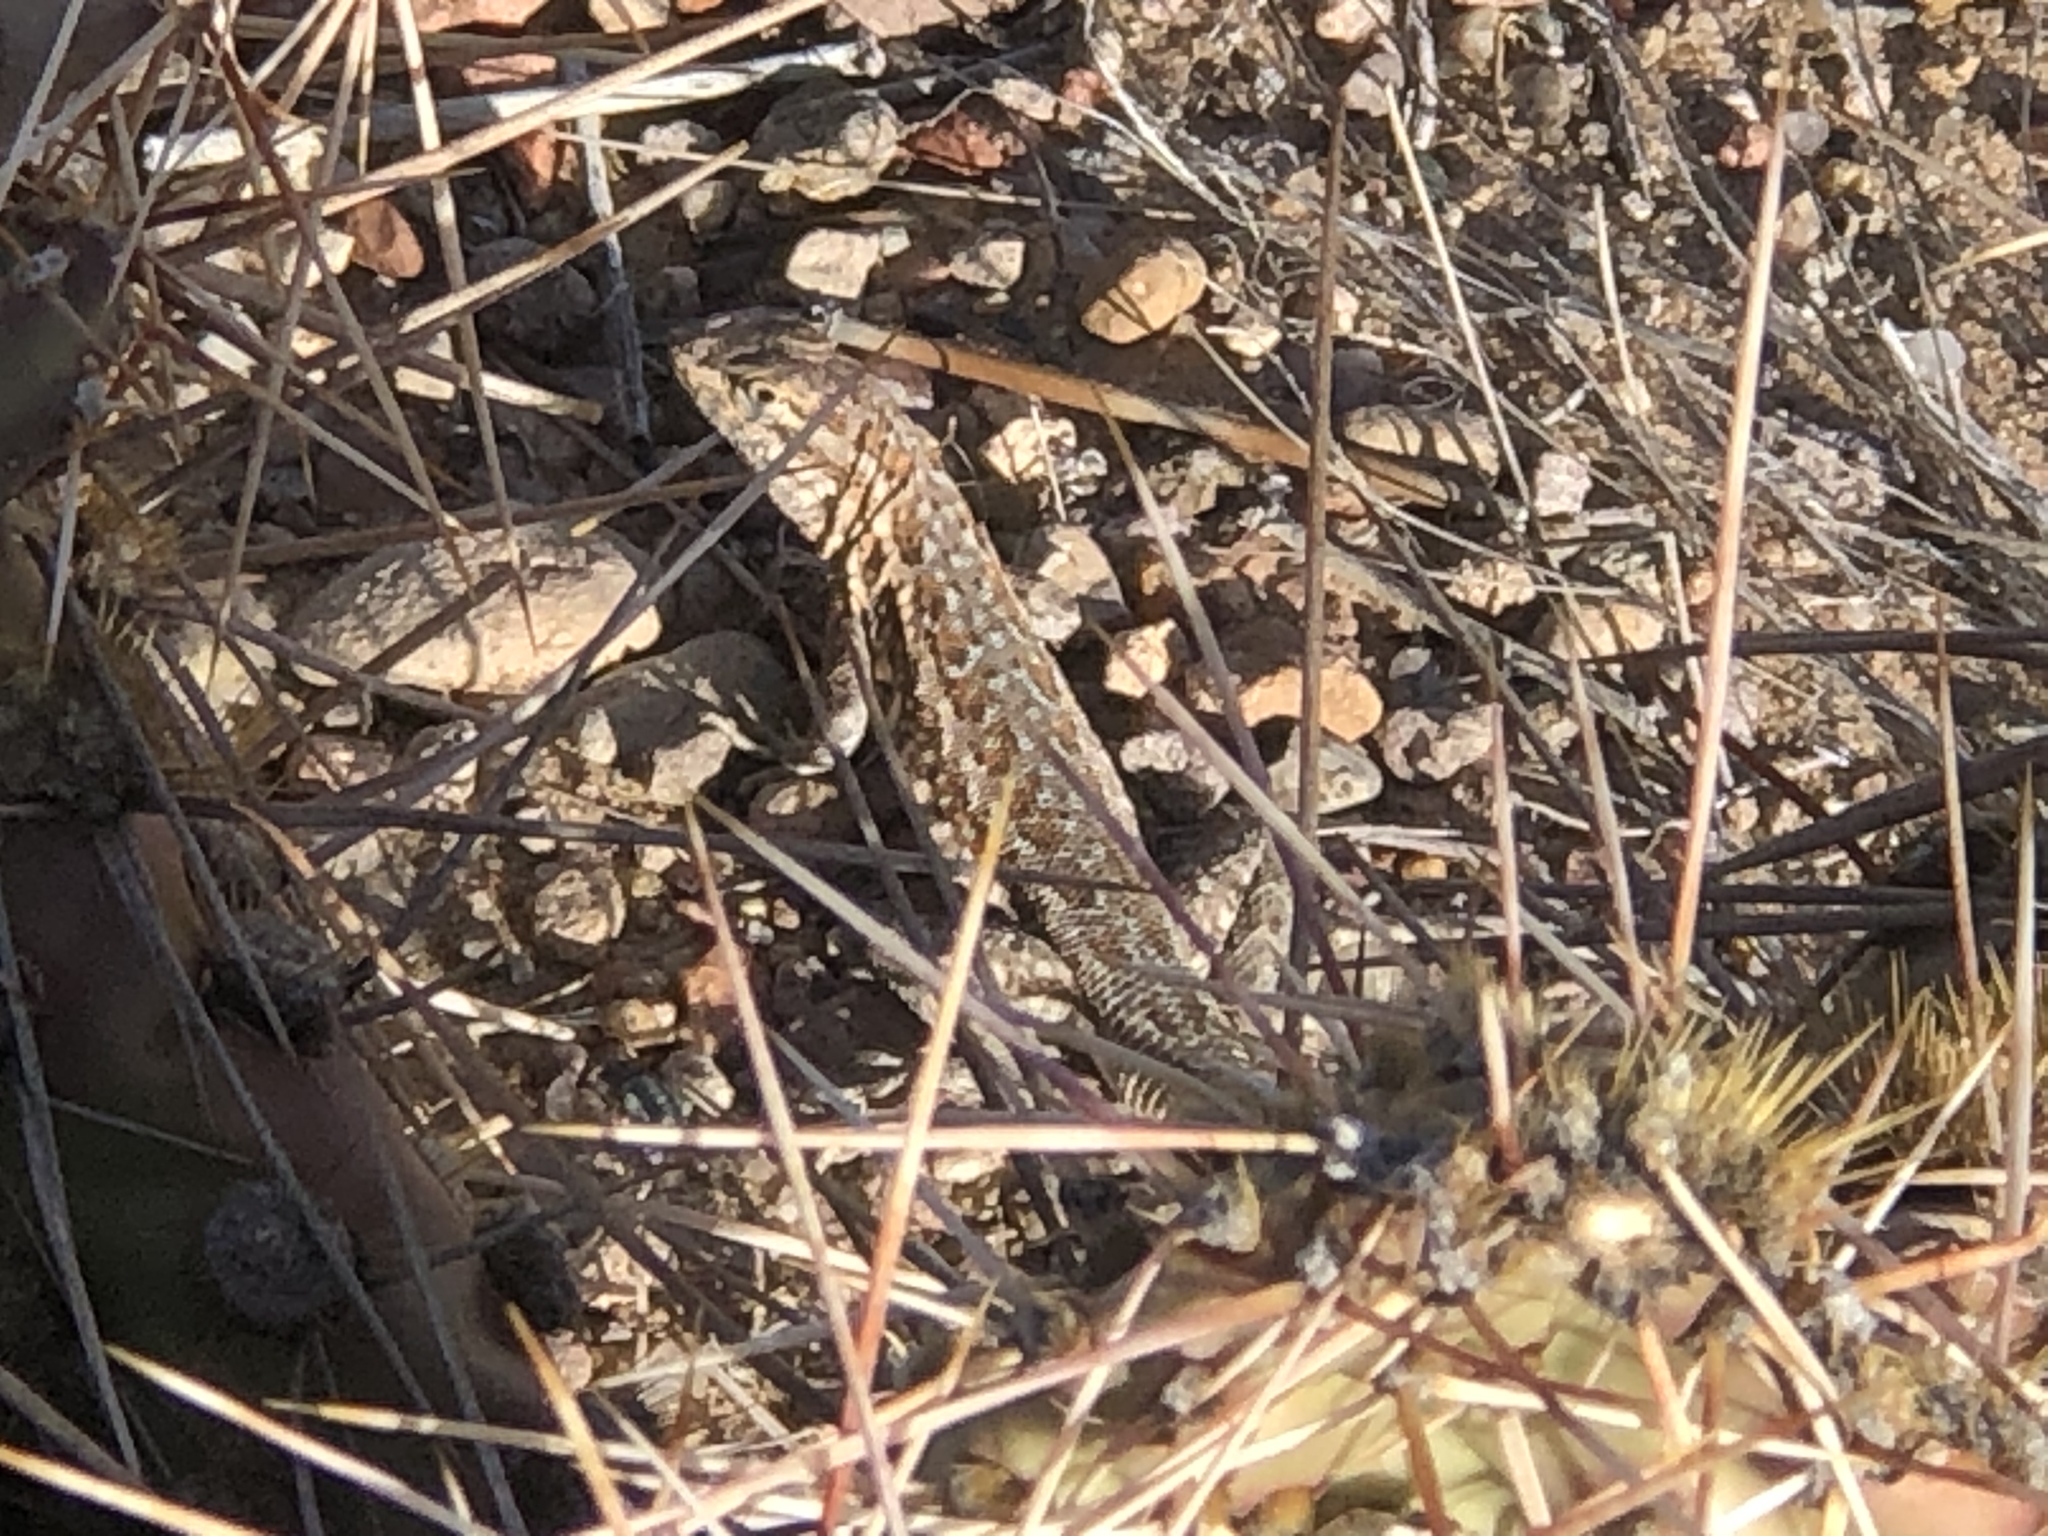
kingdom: Animalia
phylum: Chordata
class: Squamata
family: Phrynosomatidae
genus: Uta
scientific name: Uta stansburiana
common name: Side-blotched lizard
